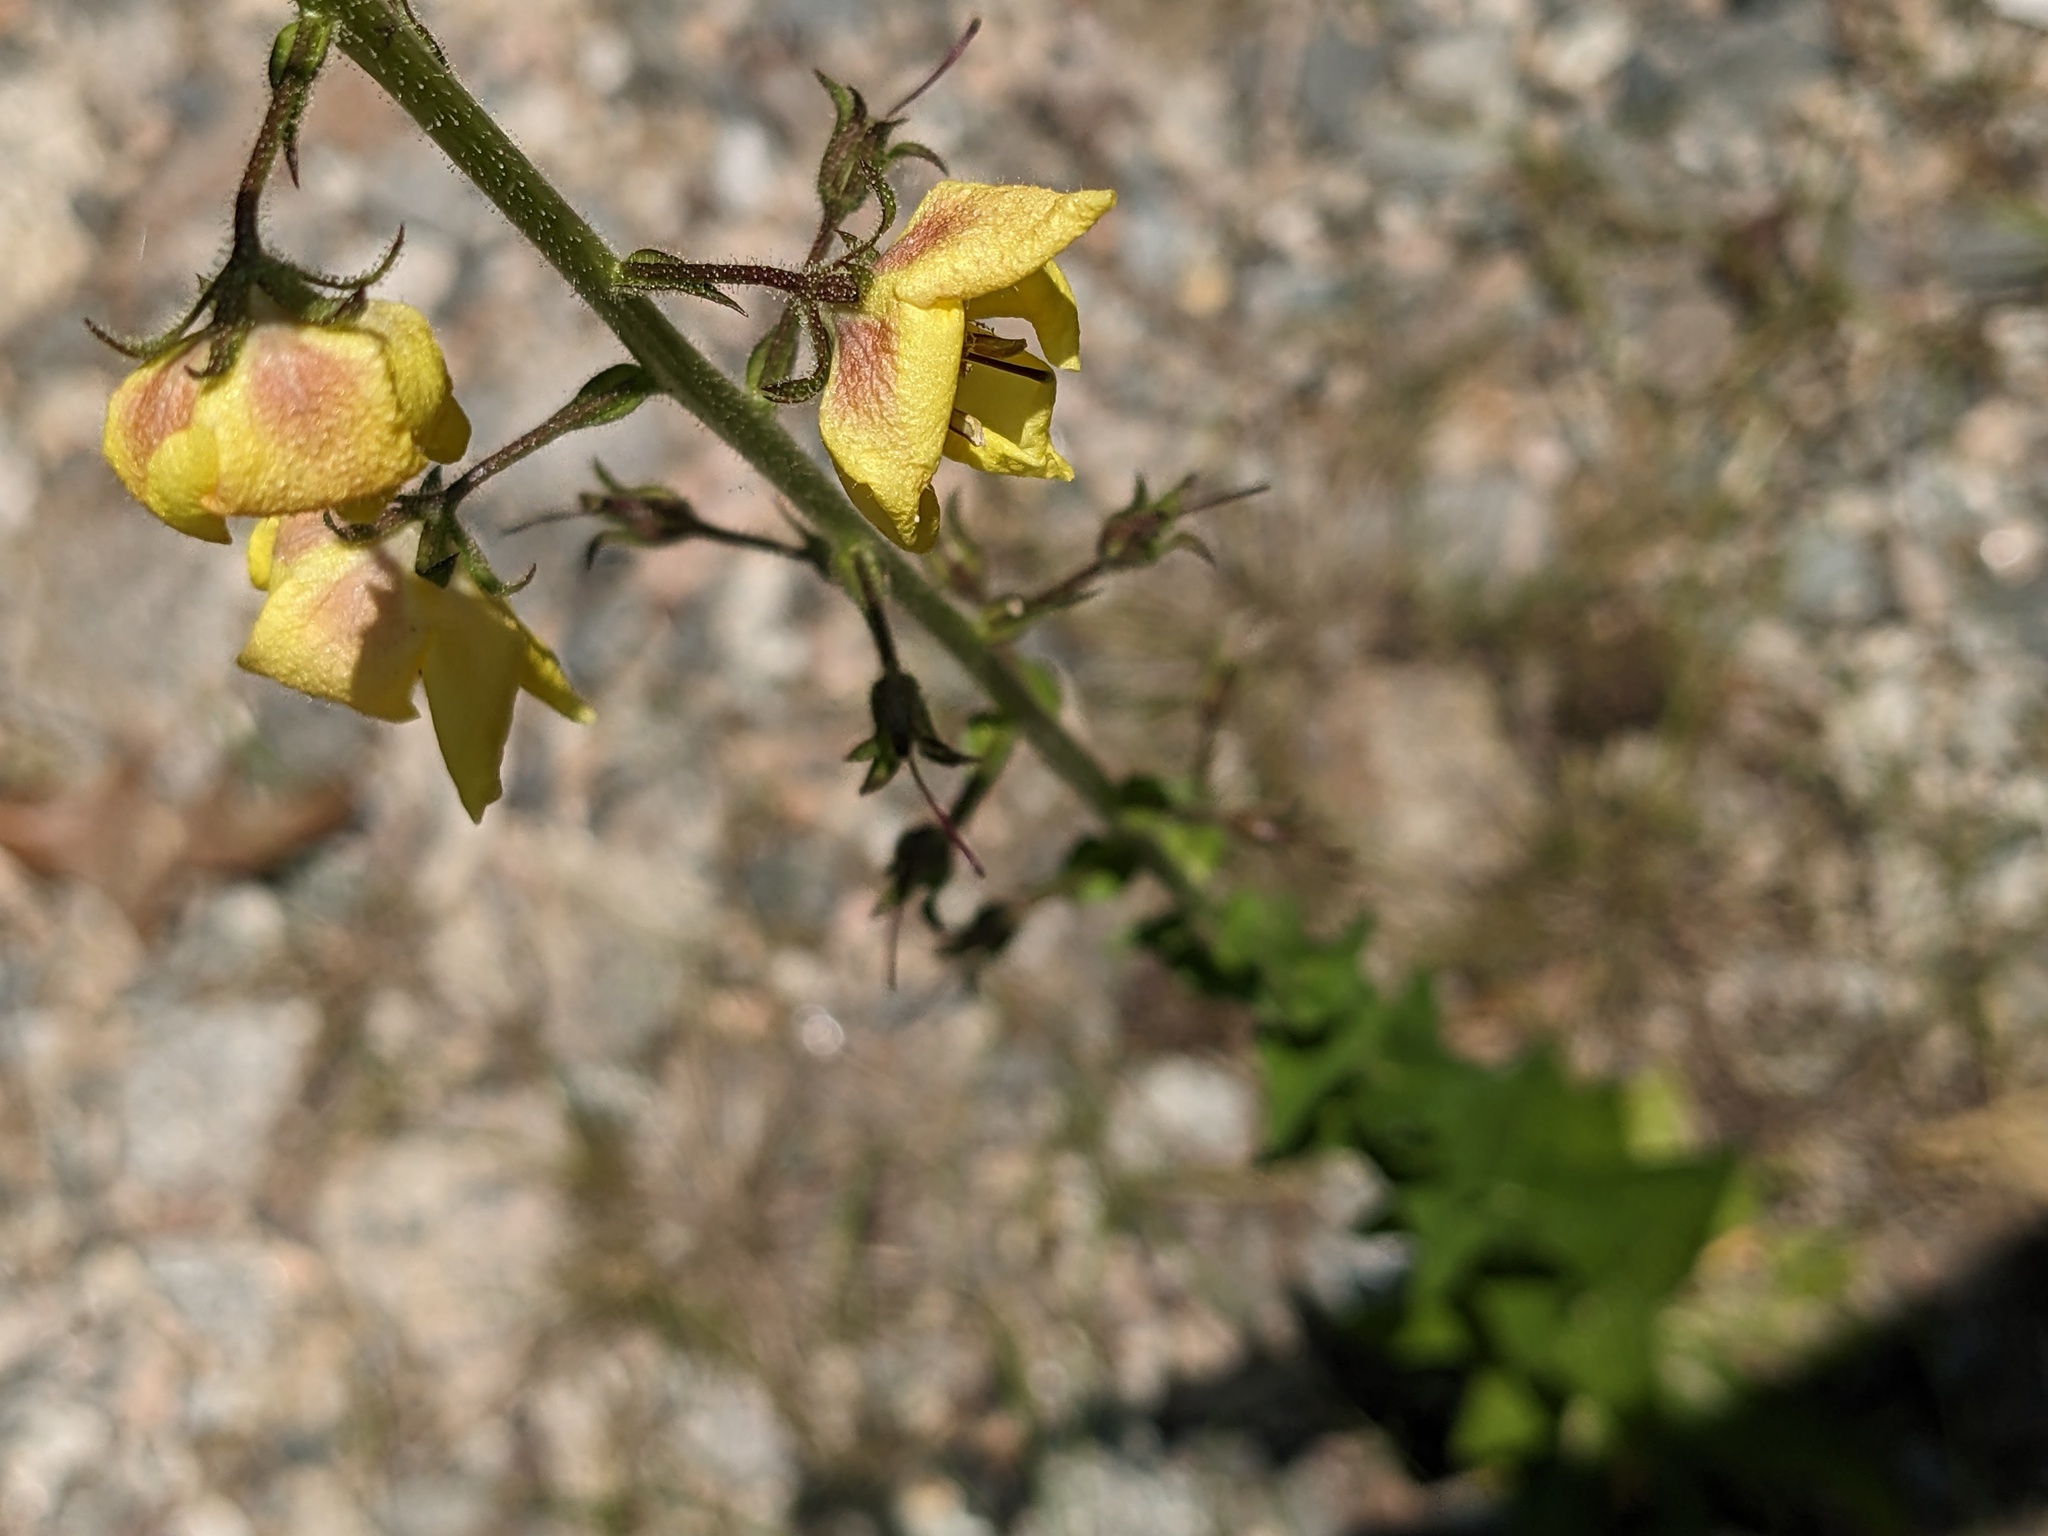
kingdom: Plantae
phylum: Tracheophyta
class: Magnoliopsida
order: Lamiales
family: Scrophulariaceae
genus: Verbascum
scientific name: Verbascum blattaria
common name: Moth mullein
